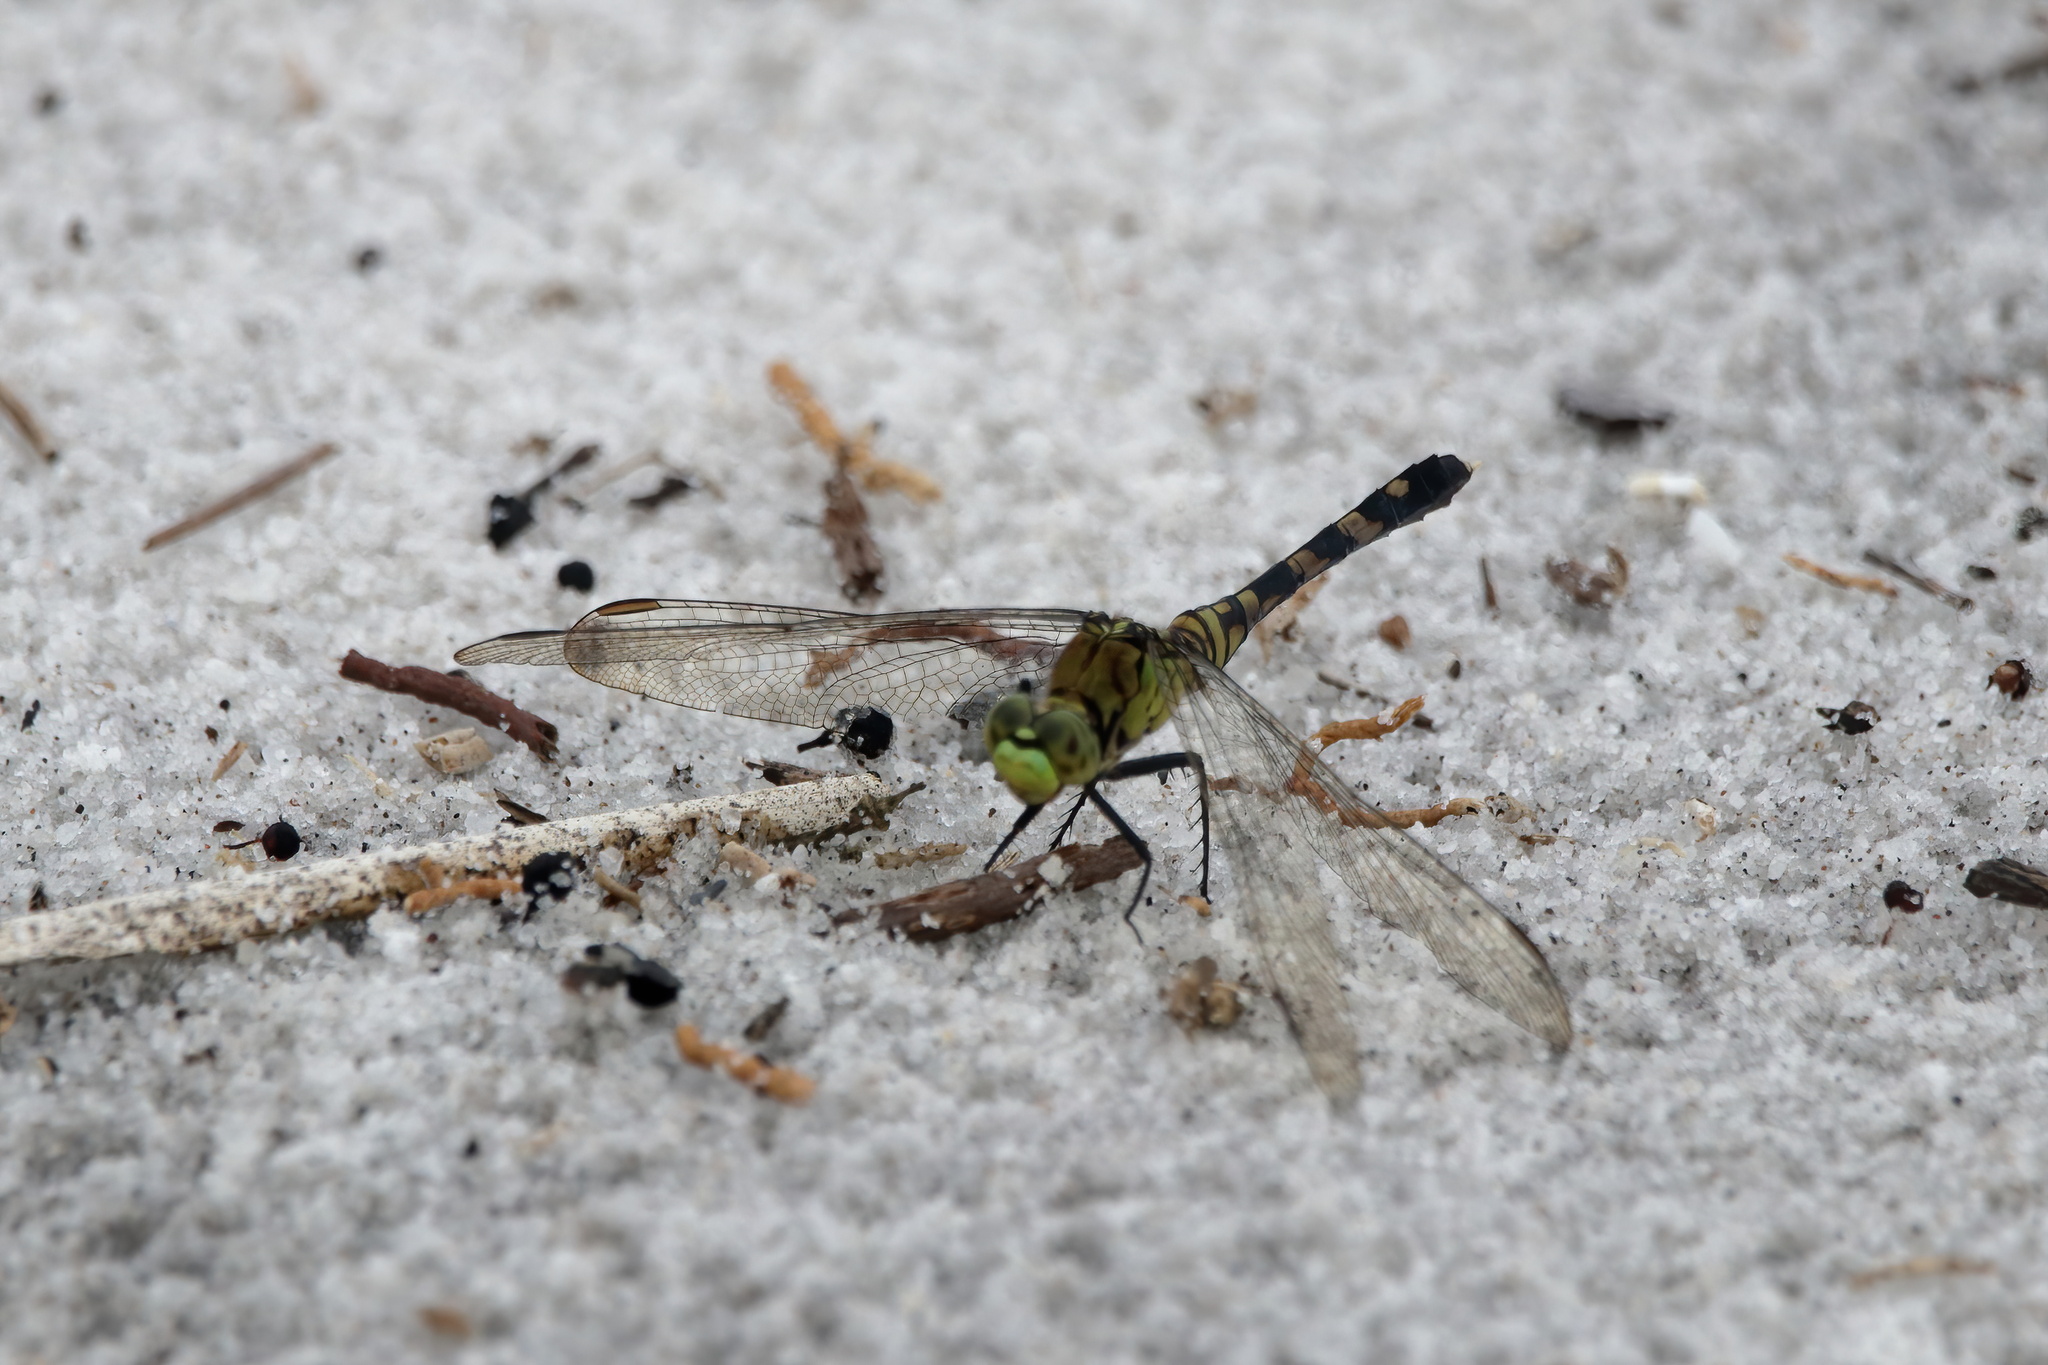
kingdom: Animalia
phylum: Arthropoda
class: Insecta
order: Odonata
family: Libellulidae
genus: Erythemis
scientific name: Erythemis simplicicollis
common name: Eastern pondhawk
